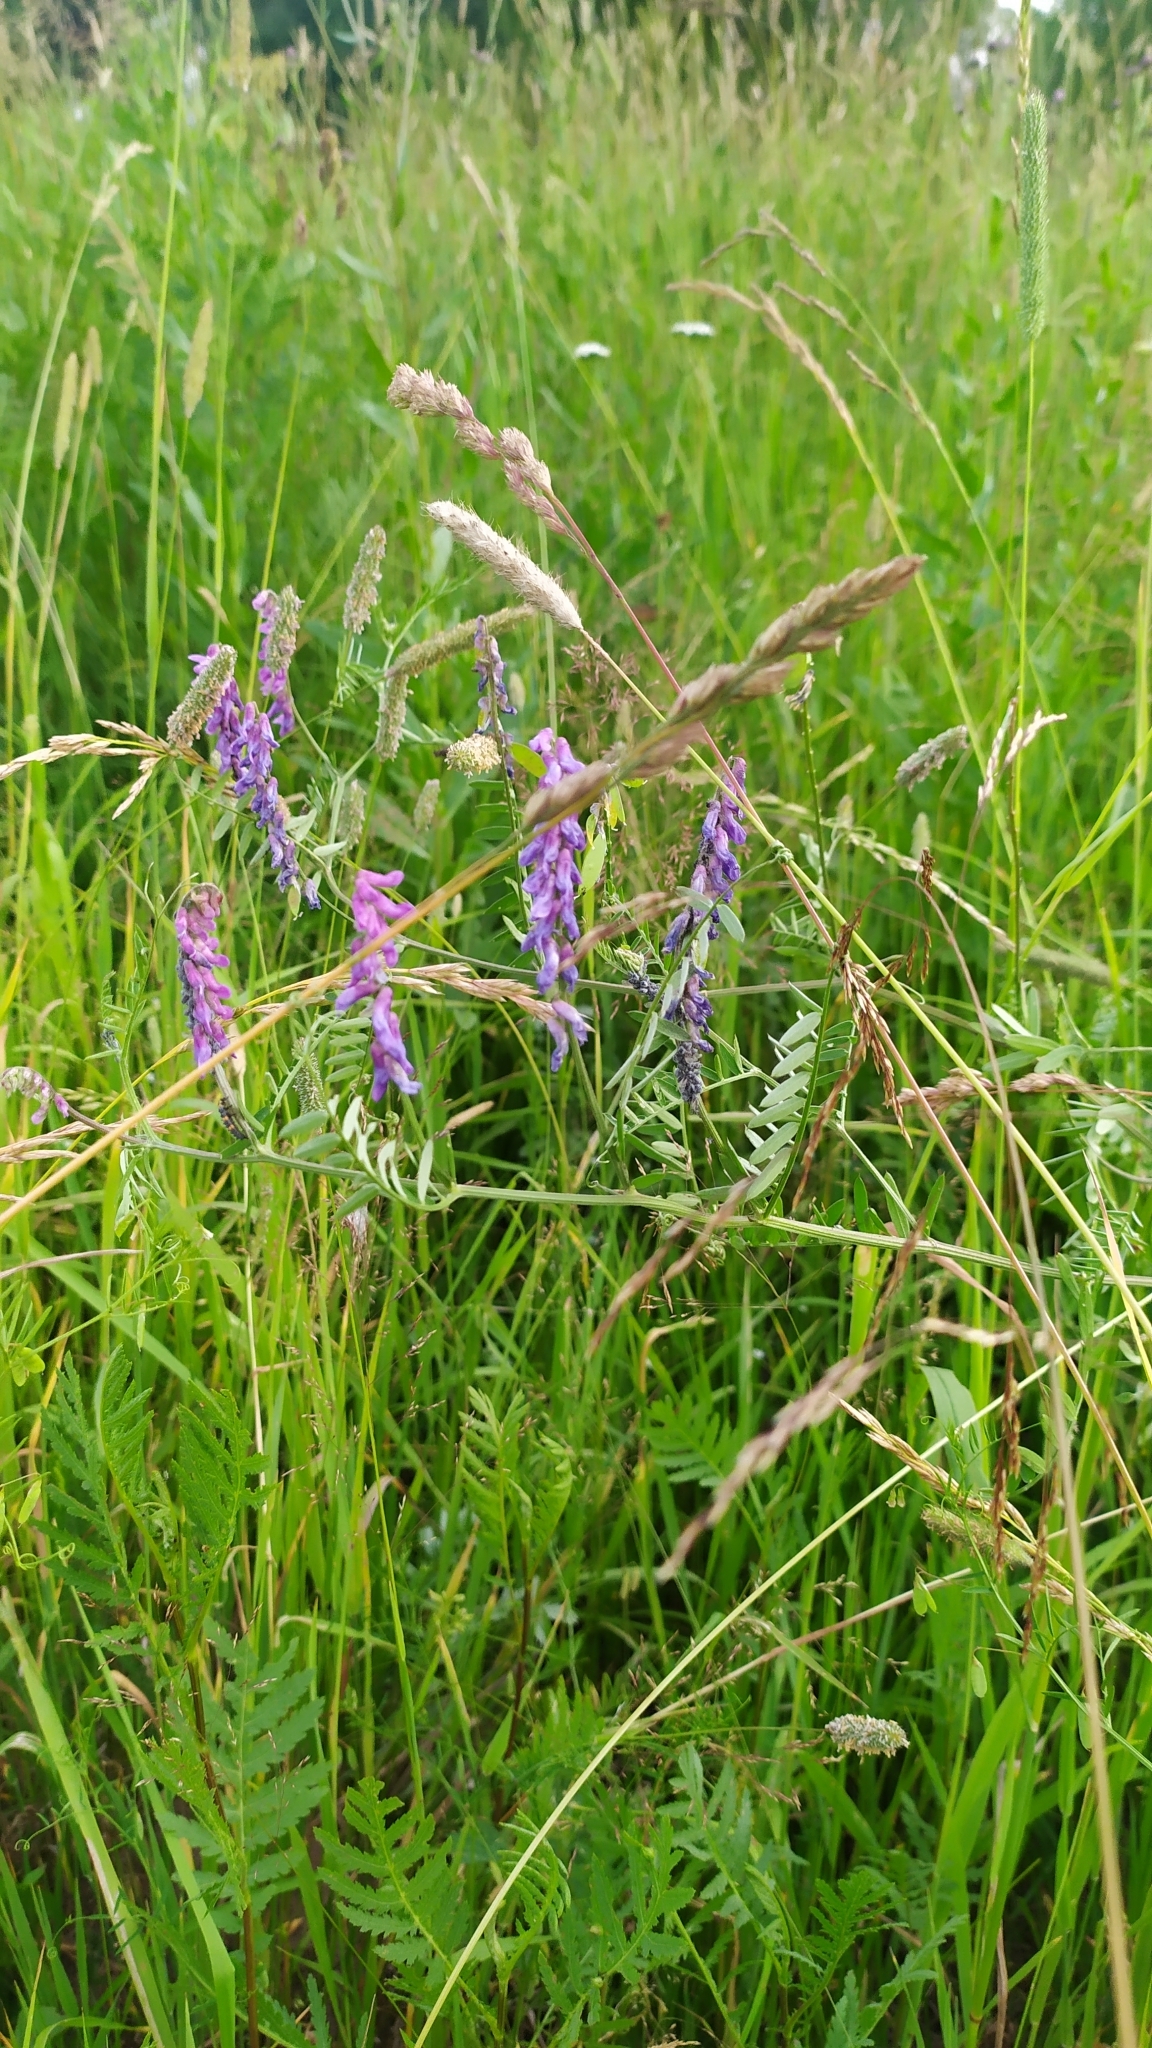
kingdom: Plantae
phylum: Tracheophyta
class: Magnoliopsida
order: Fabales
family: Fabaceae
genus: Vicia
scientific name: Vicia cracca
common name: Bird vetch
